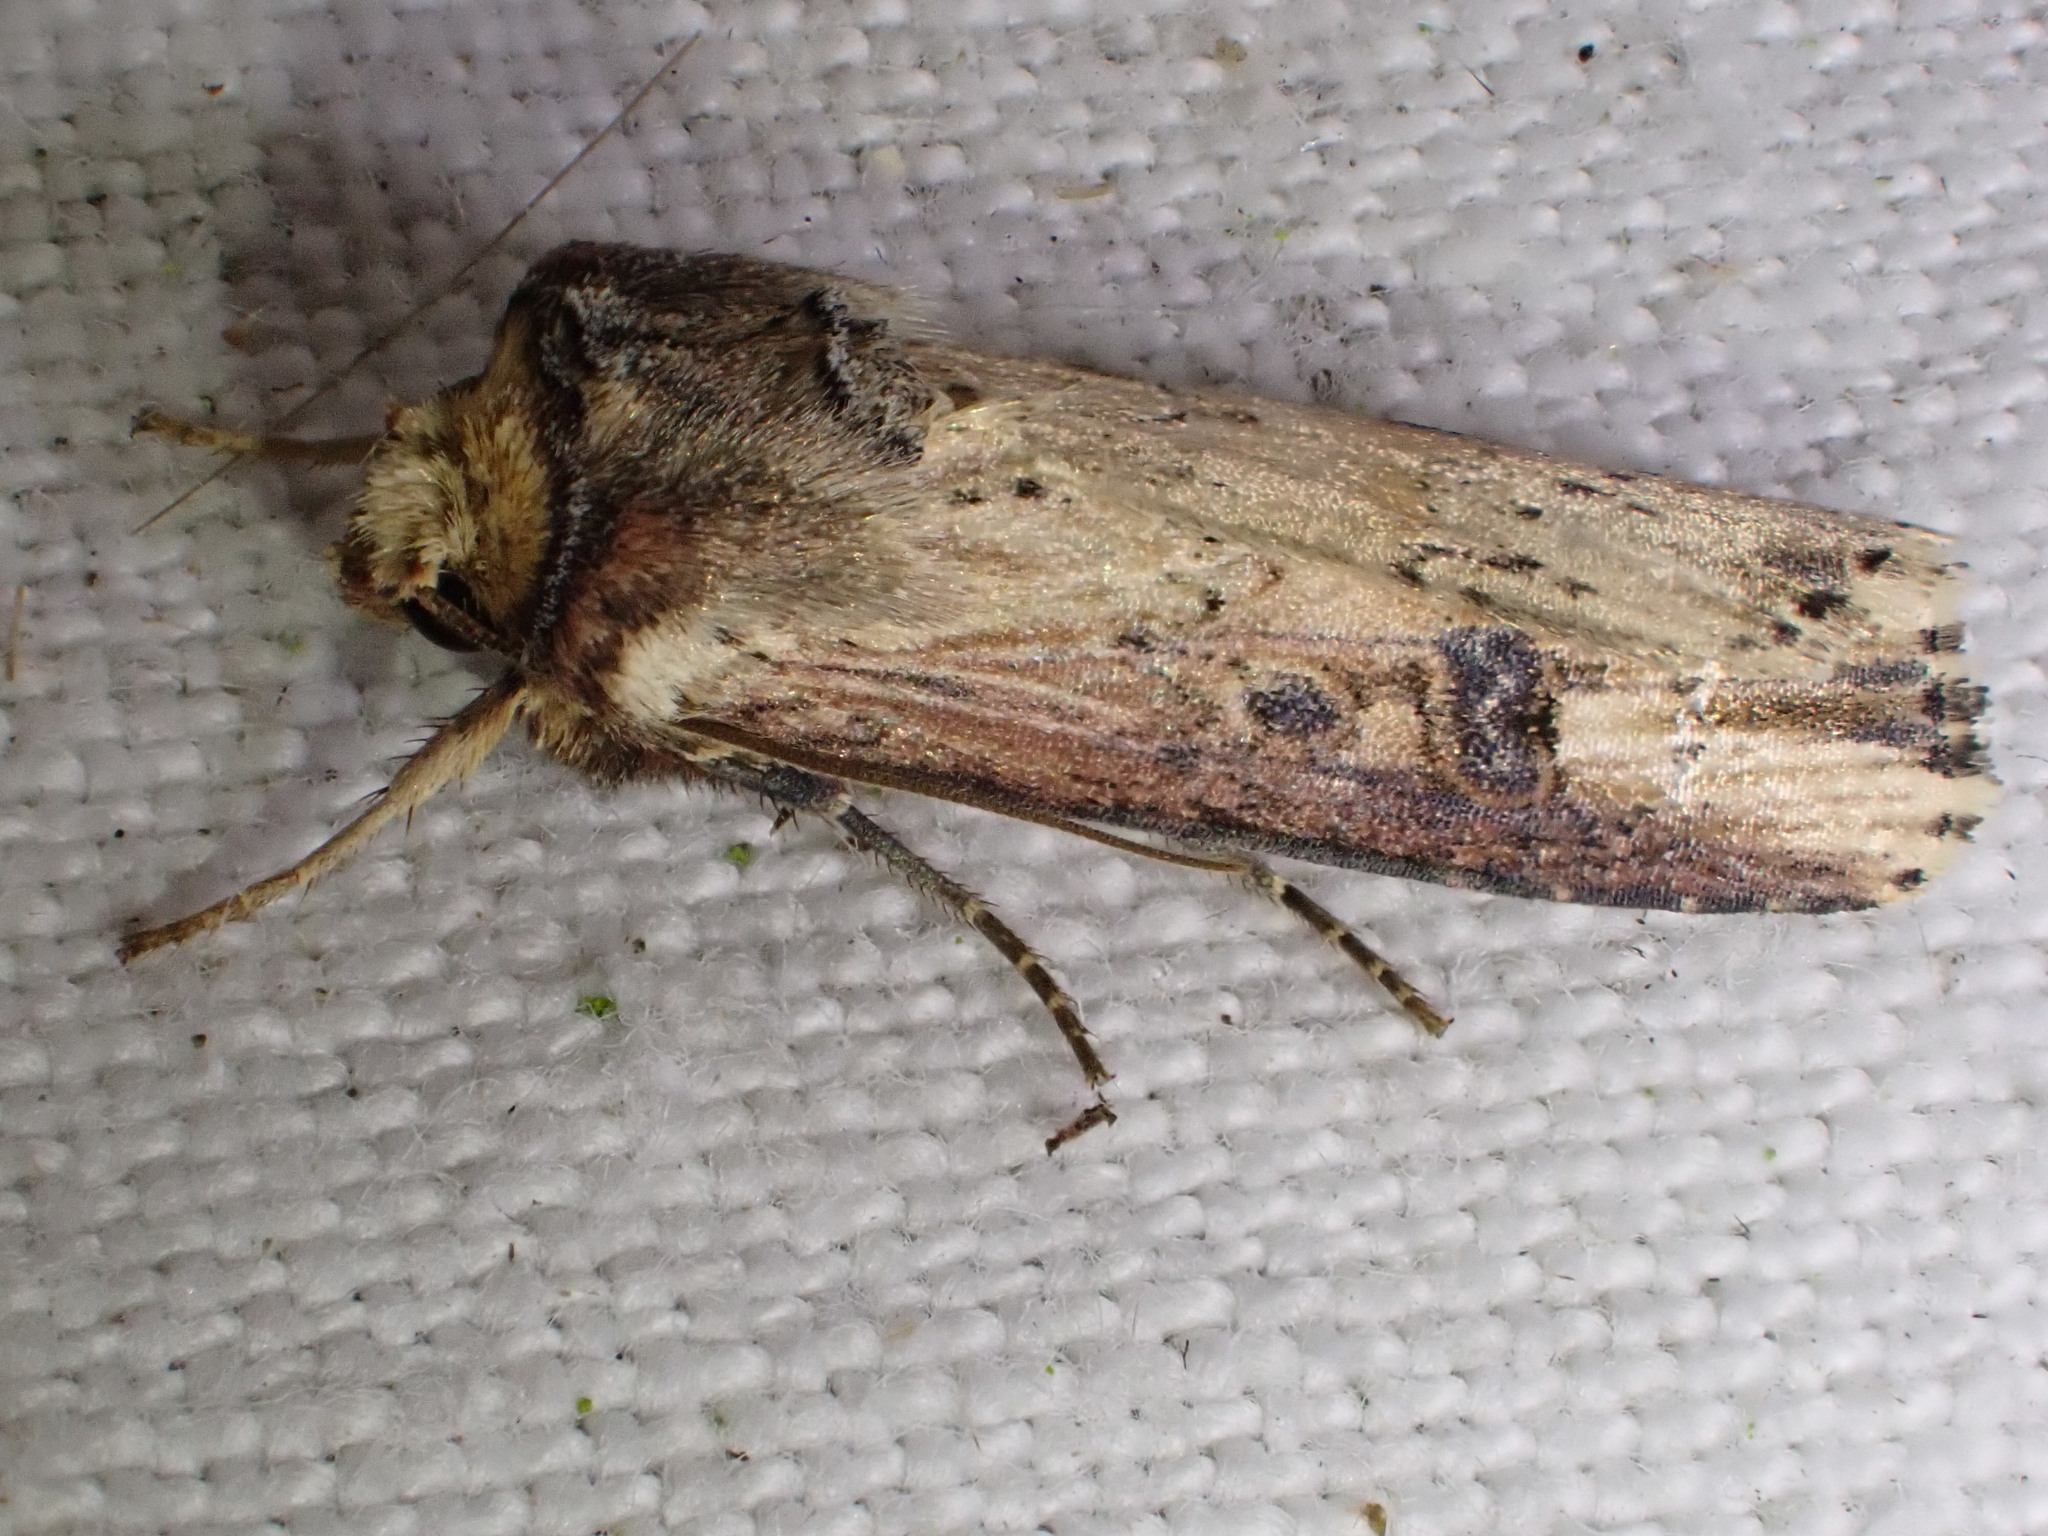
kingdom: Animalia
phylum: Arthropoda
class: Insecta
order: Lepidoptera
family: Noctuidae
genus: Axylia
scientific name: Axylia putris
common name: Flame
